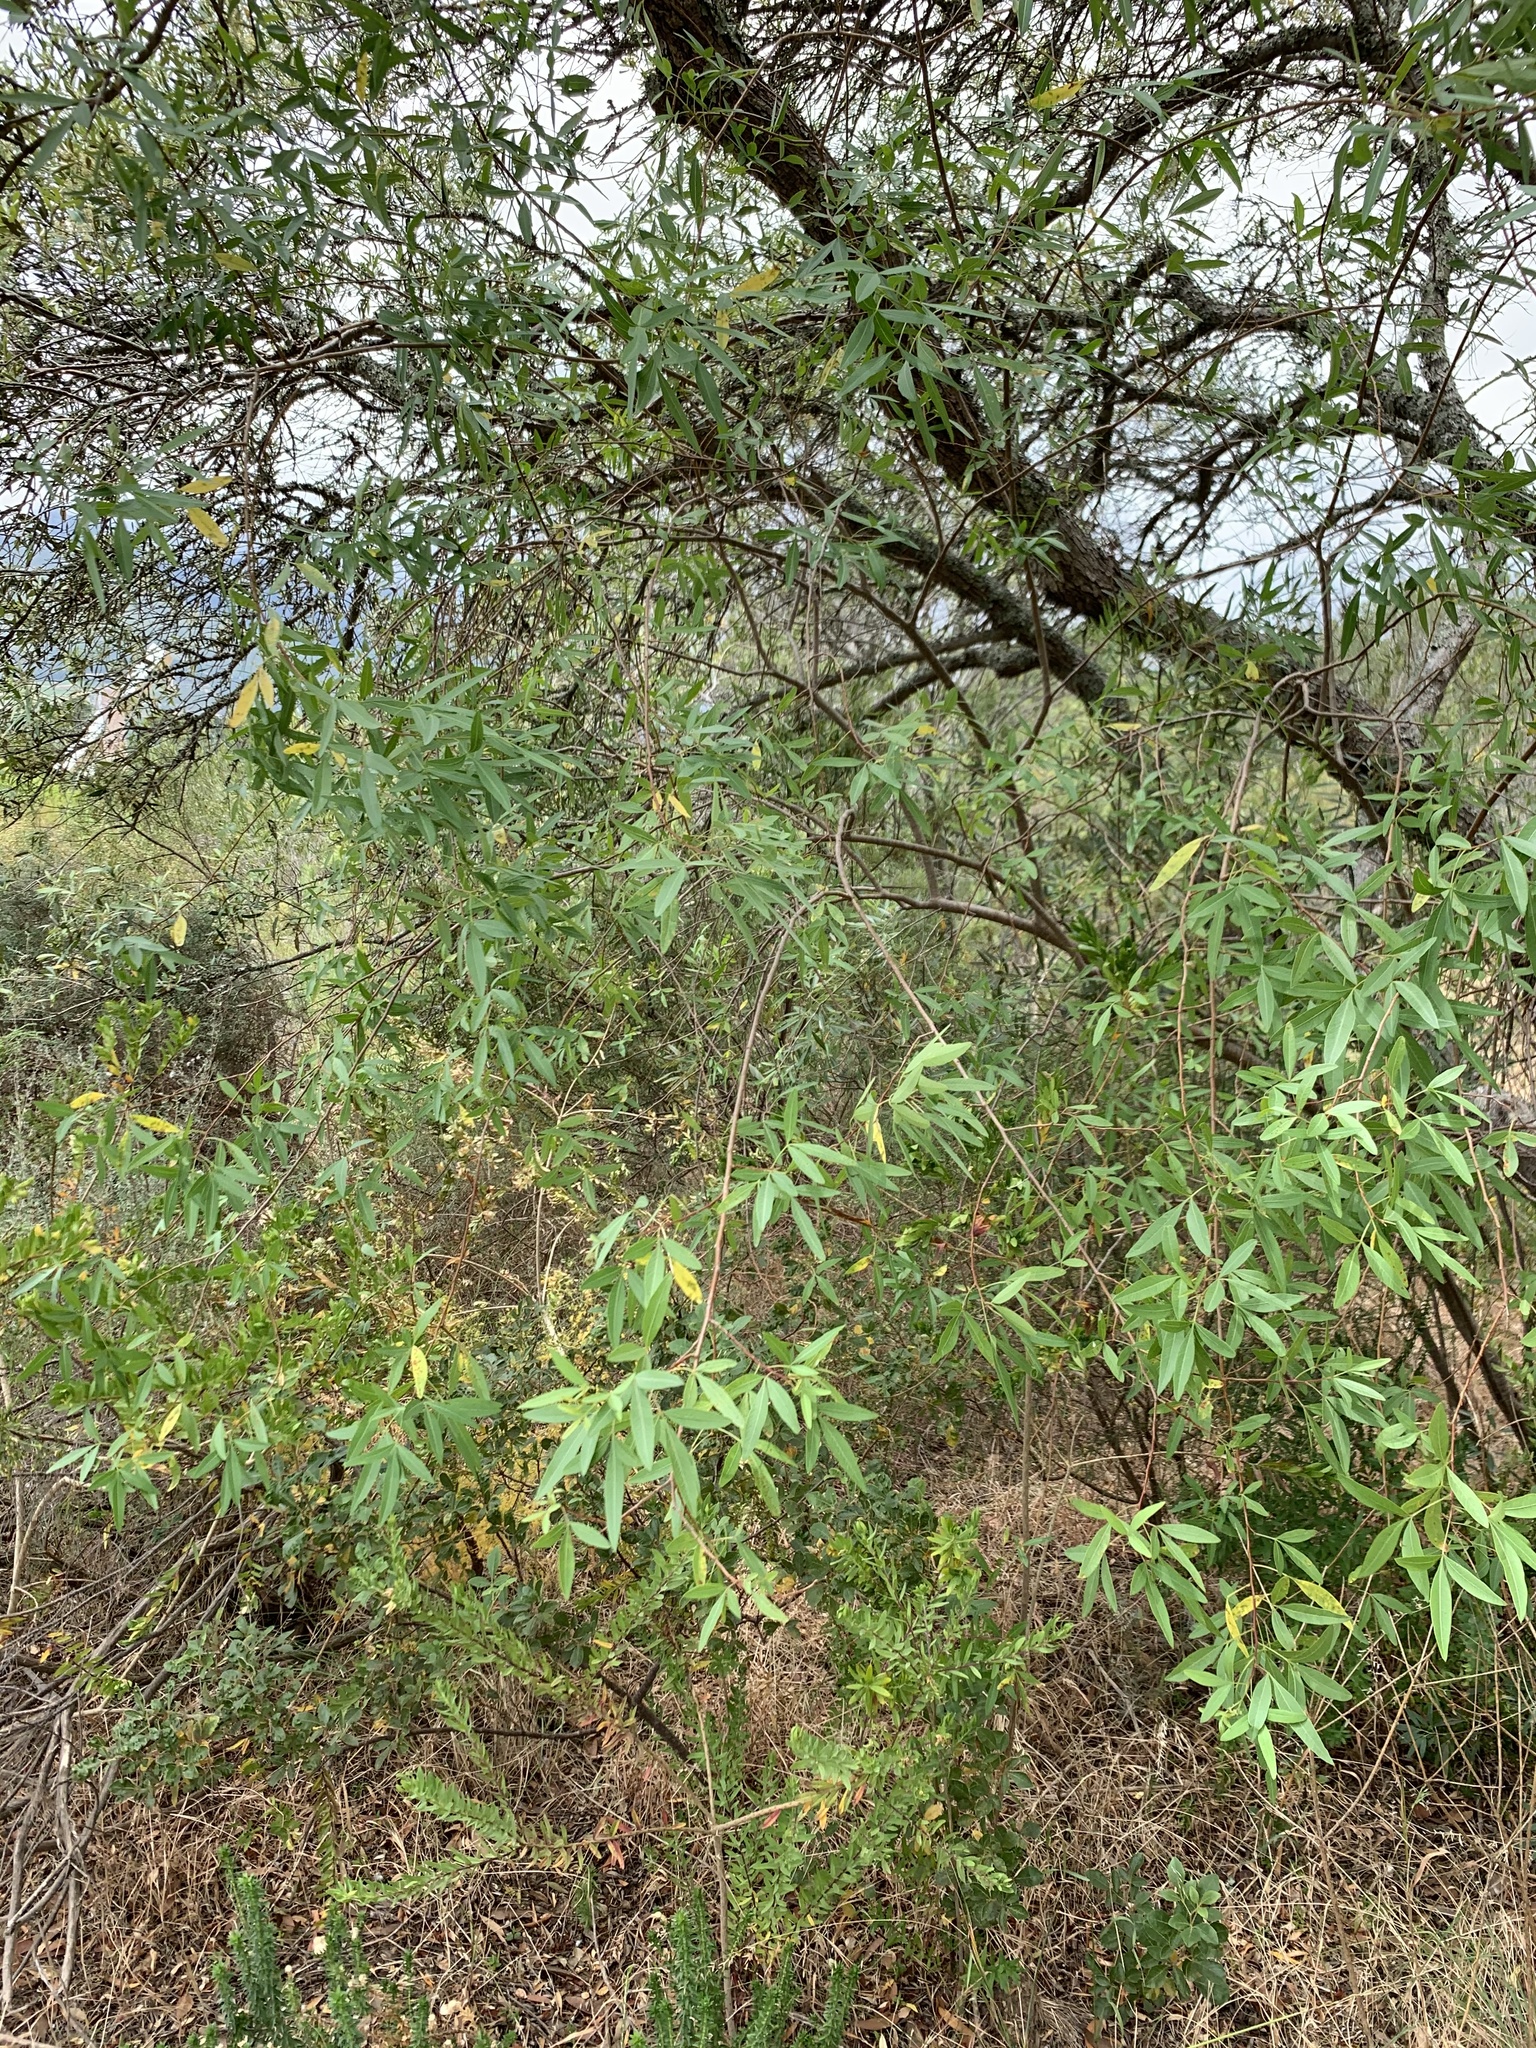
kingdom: Plantae
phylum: Tracheophyta
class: Magnoliopsida
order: Sapindales
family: Anacardiaceae
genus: Searsia
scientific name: Searsia pendulina
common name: White karee
